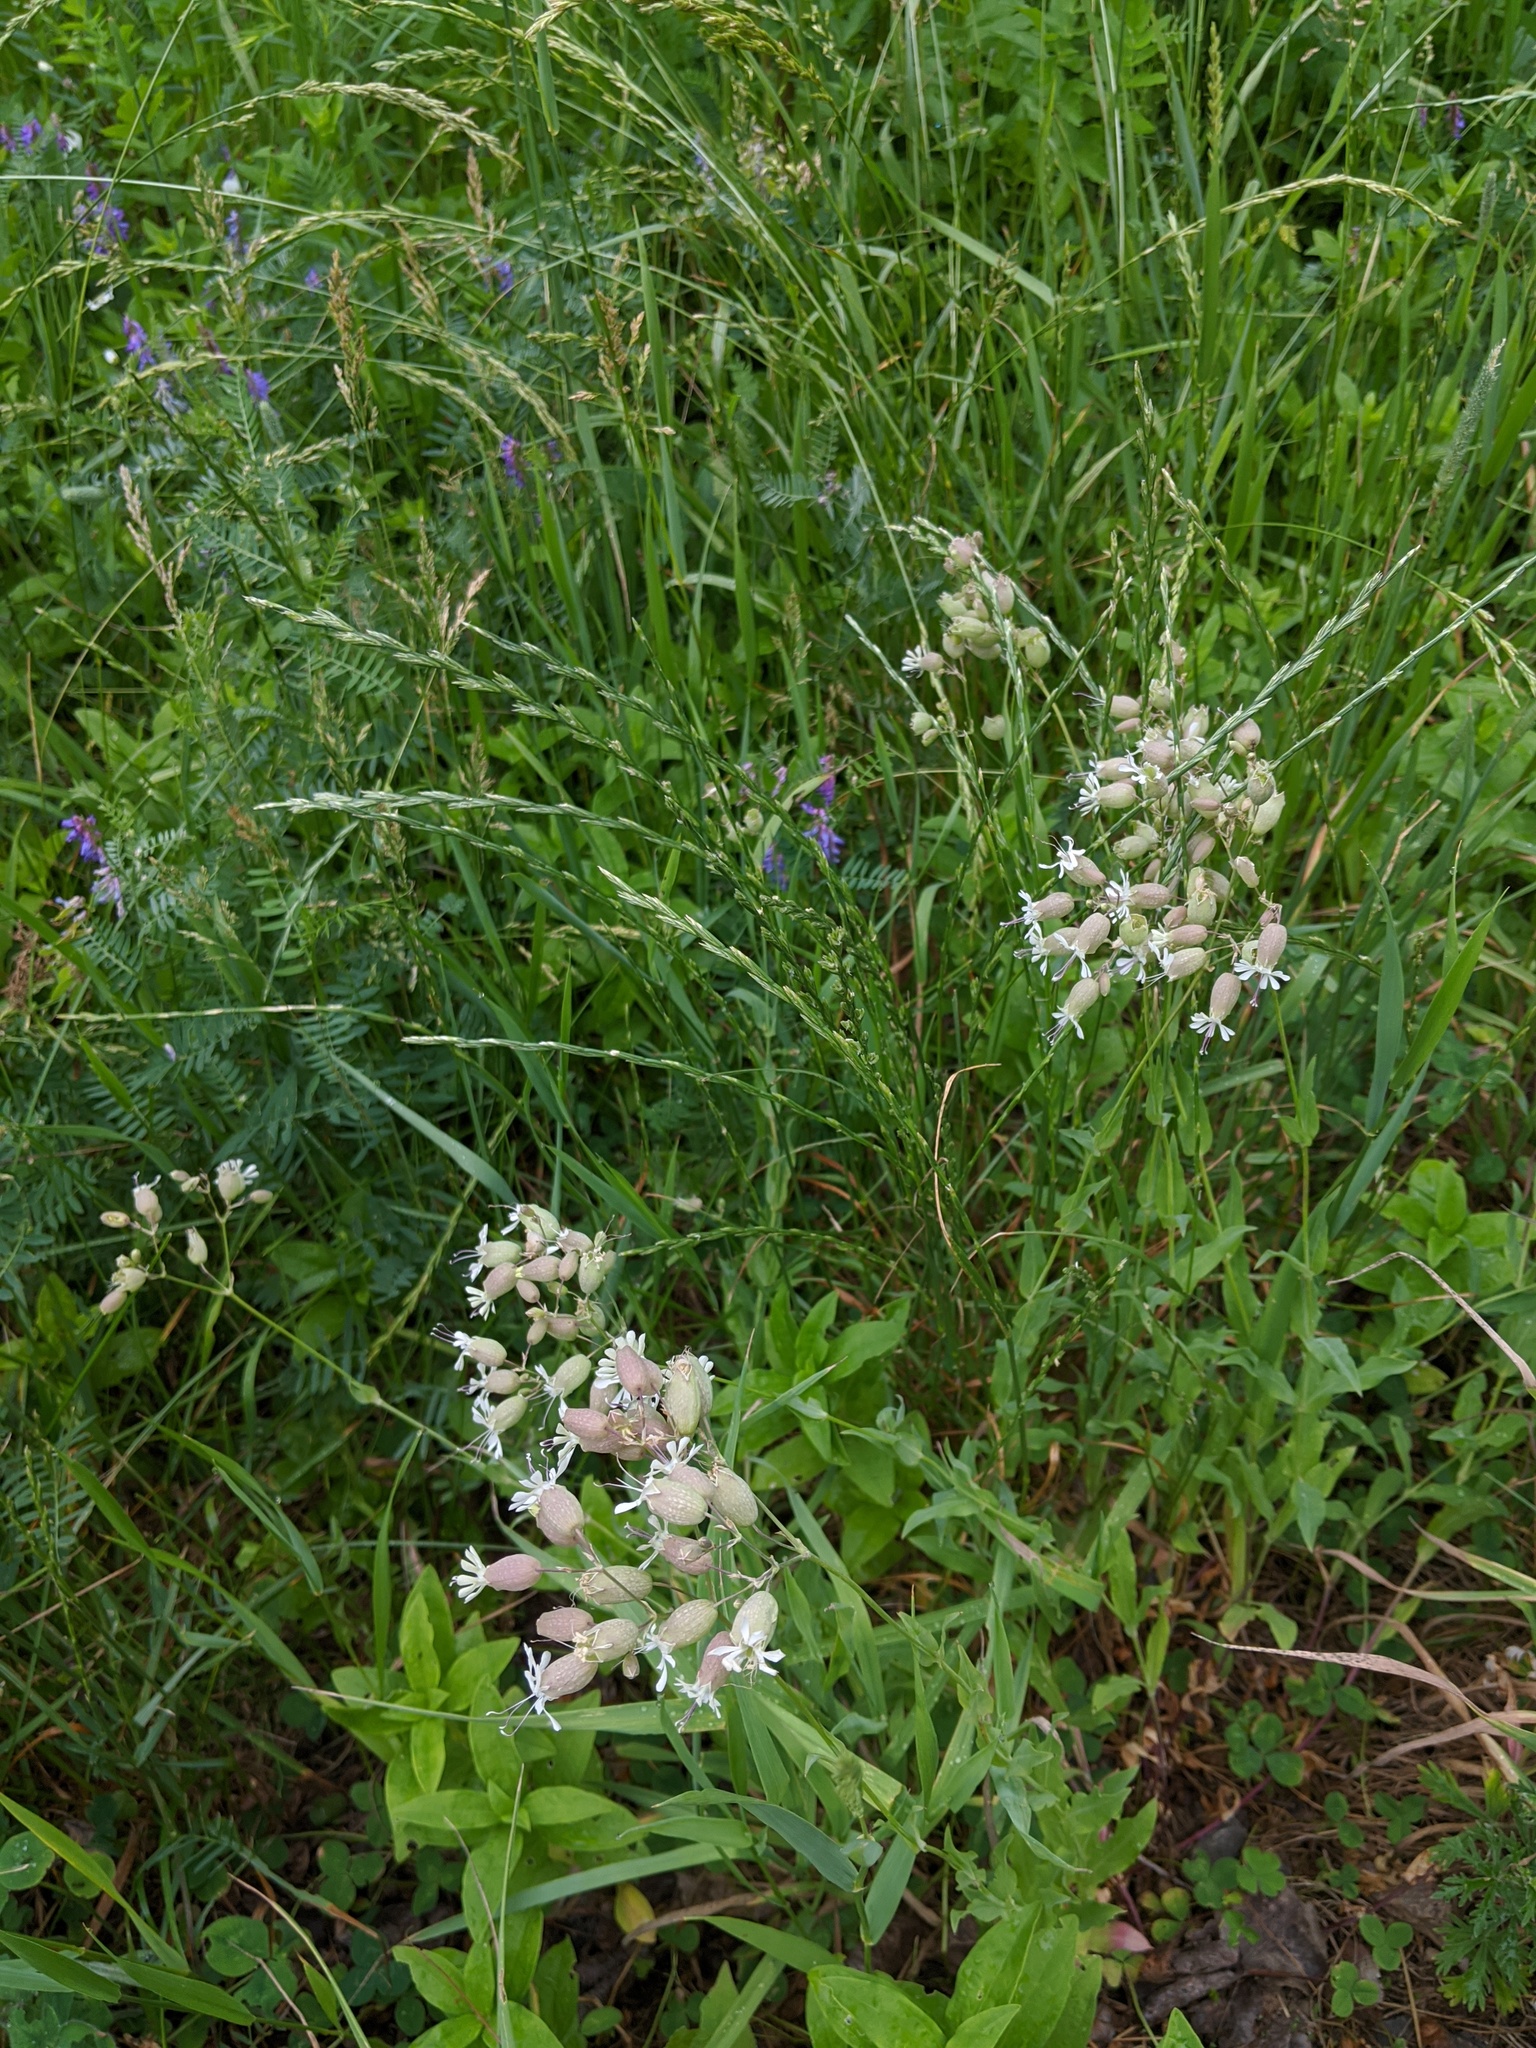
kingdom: Plantae
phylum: Tracheophyta
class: Magnoliopsida
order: Caryophyllales
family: Caryophyllaceae
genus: Silene
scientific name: Silene vulgaris
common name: Bladder campion
